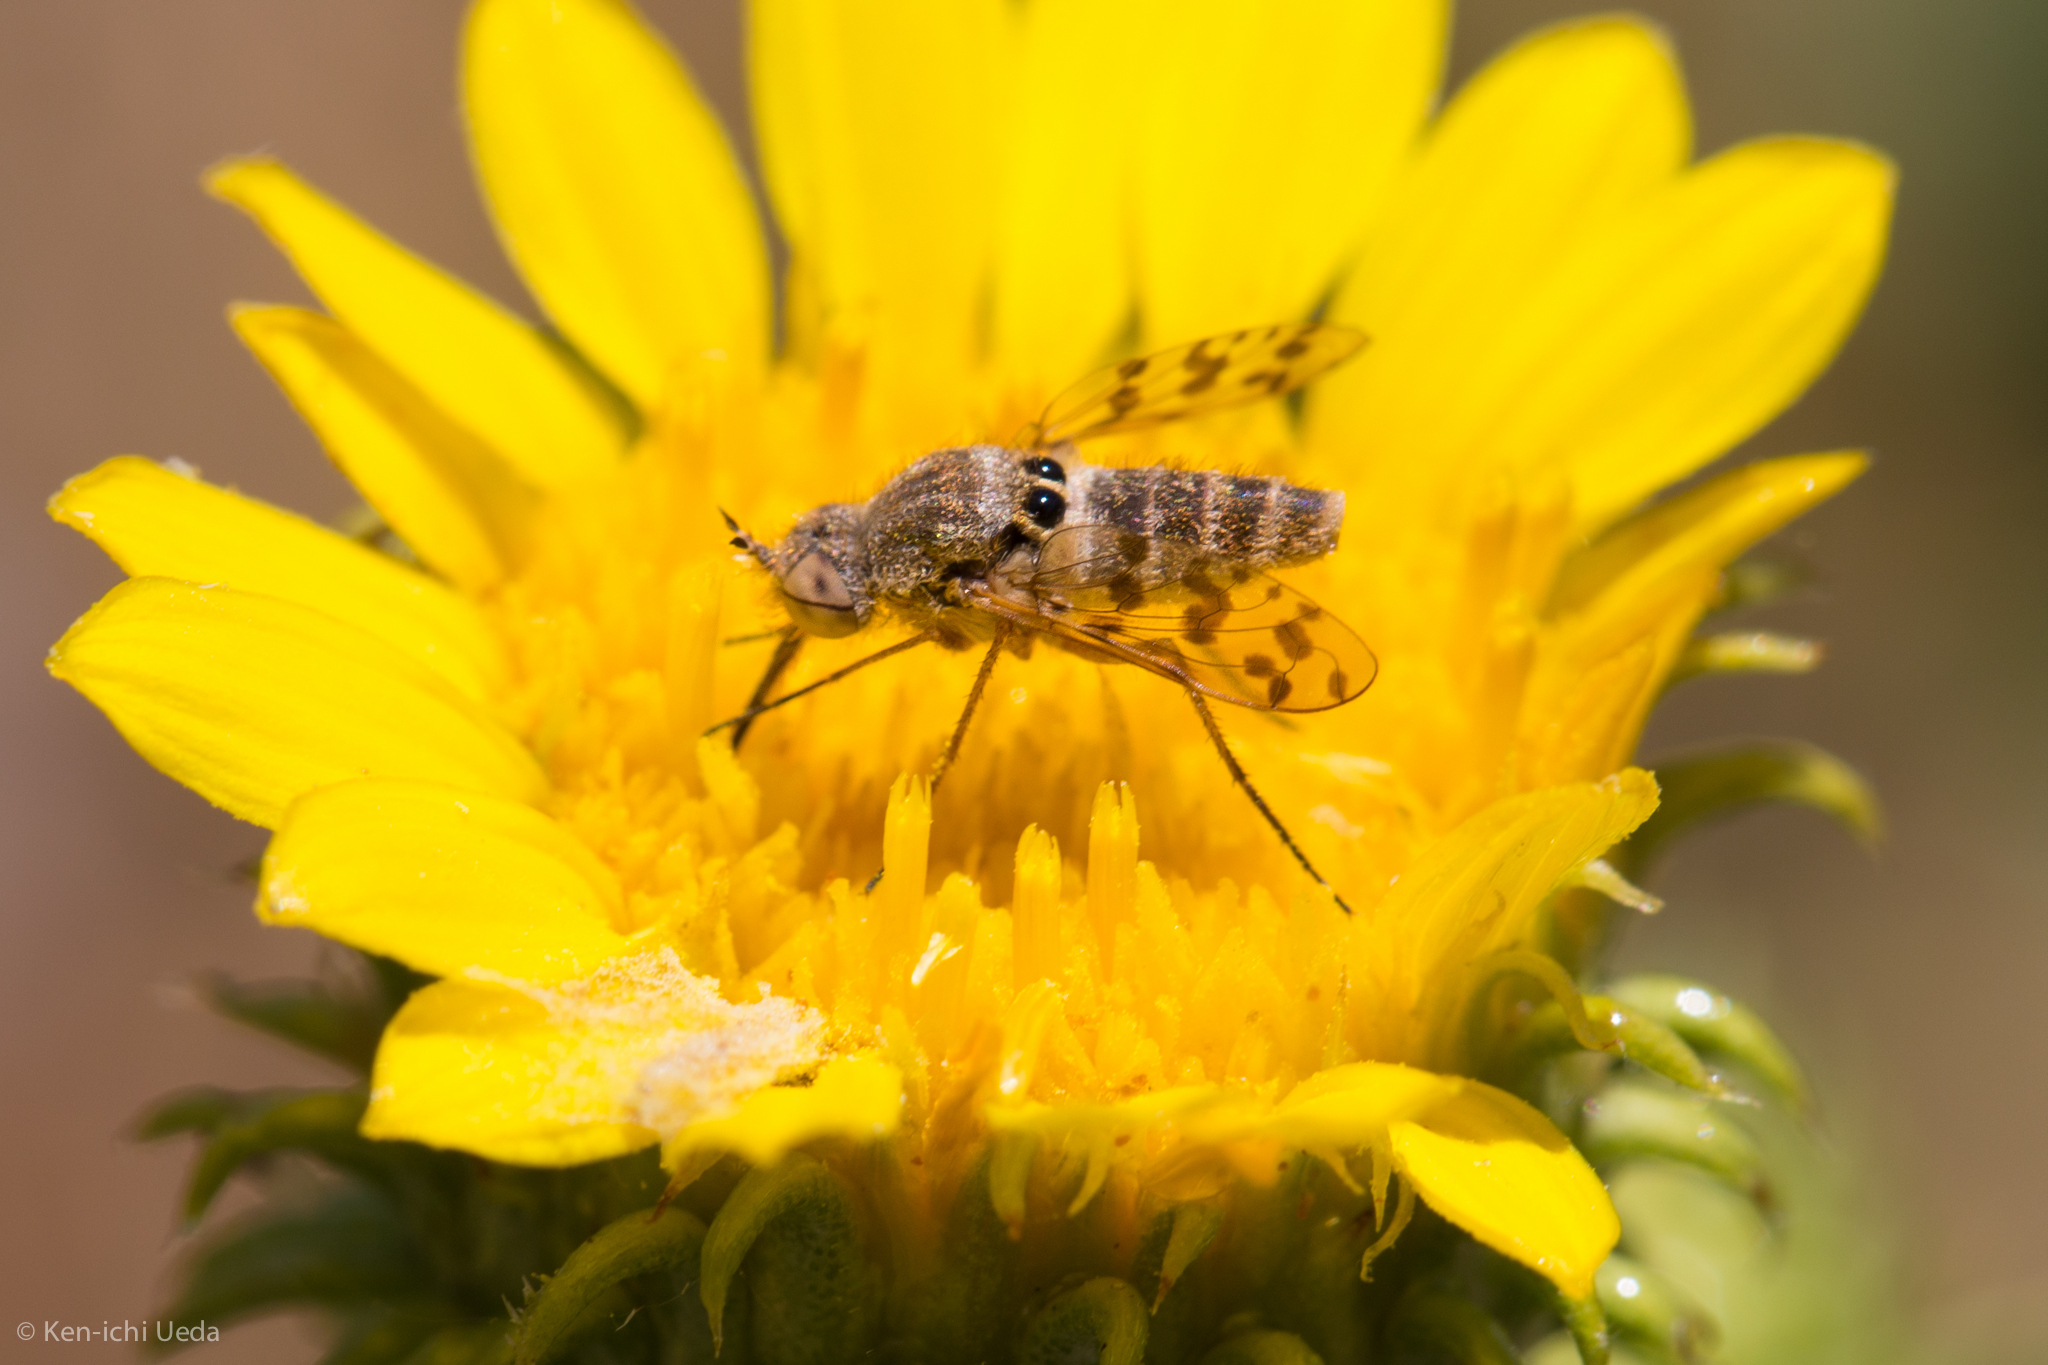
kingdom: Animalia
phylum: Arthropoda
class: Insecta
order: Diptera
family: Bombyliidae
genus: Geminaria
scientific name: Geminaria canalis
